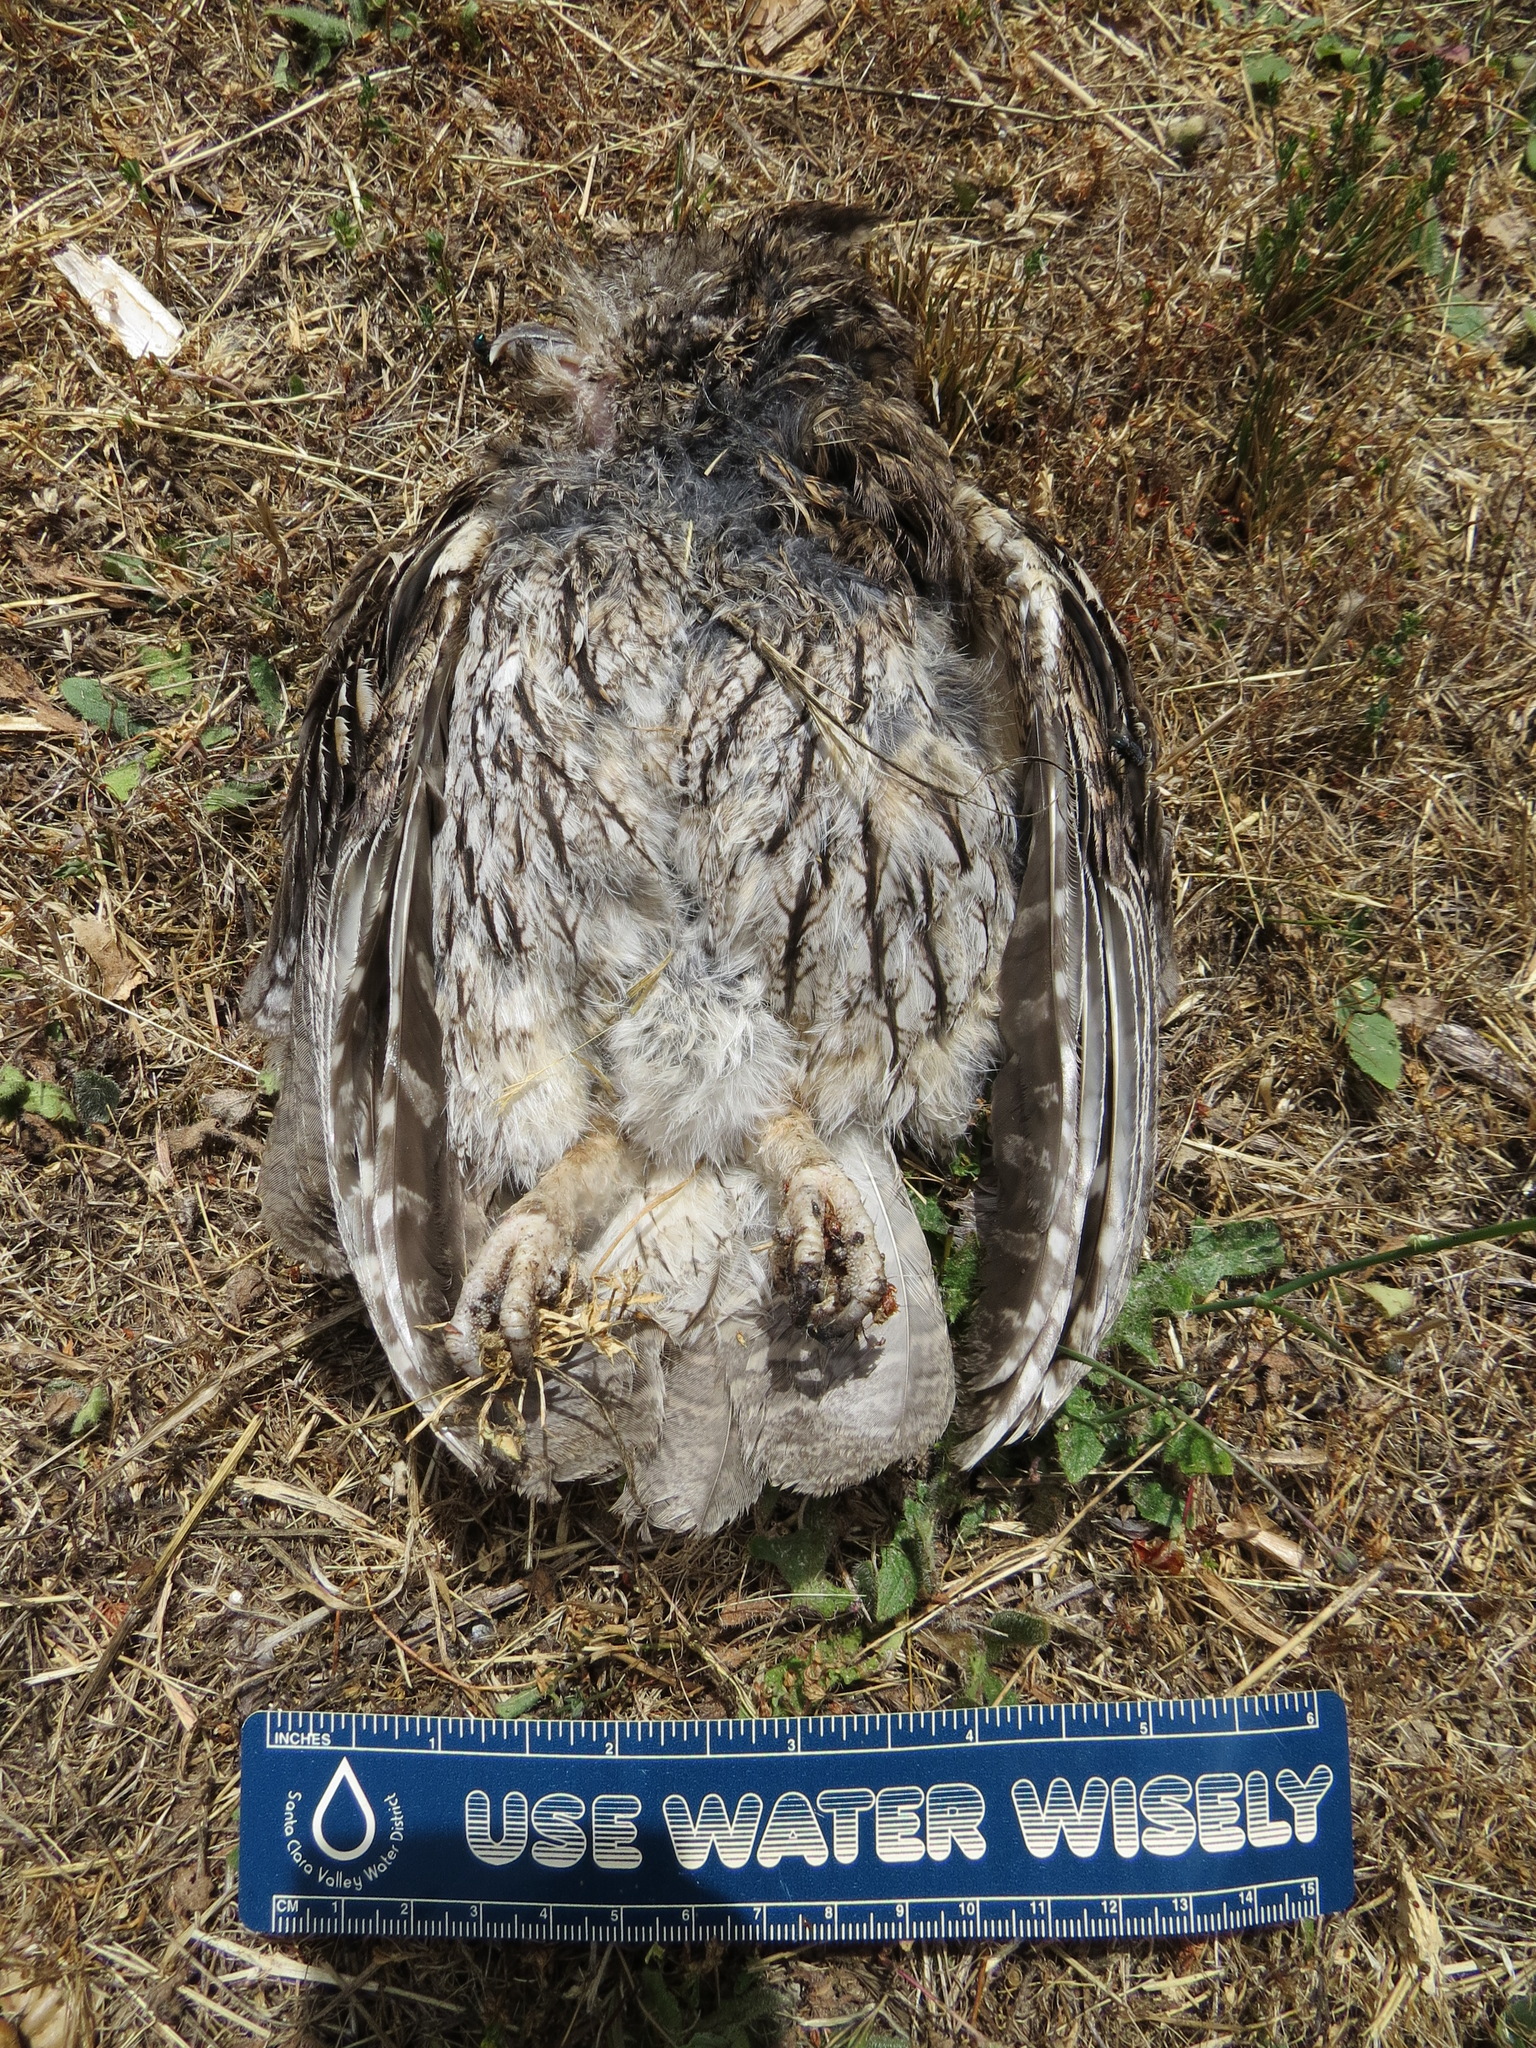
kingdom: Animalia
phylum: Chordata
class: Aves
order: Strigiformes
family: Strigidae
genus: Megascops
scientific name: Megascops kennicottii
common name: Western screech-owl
